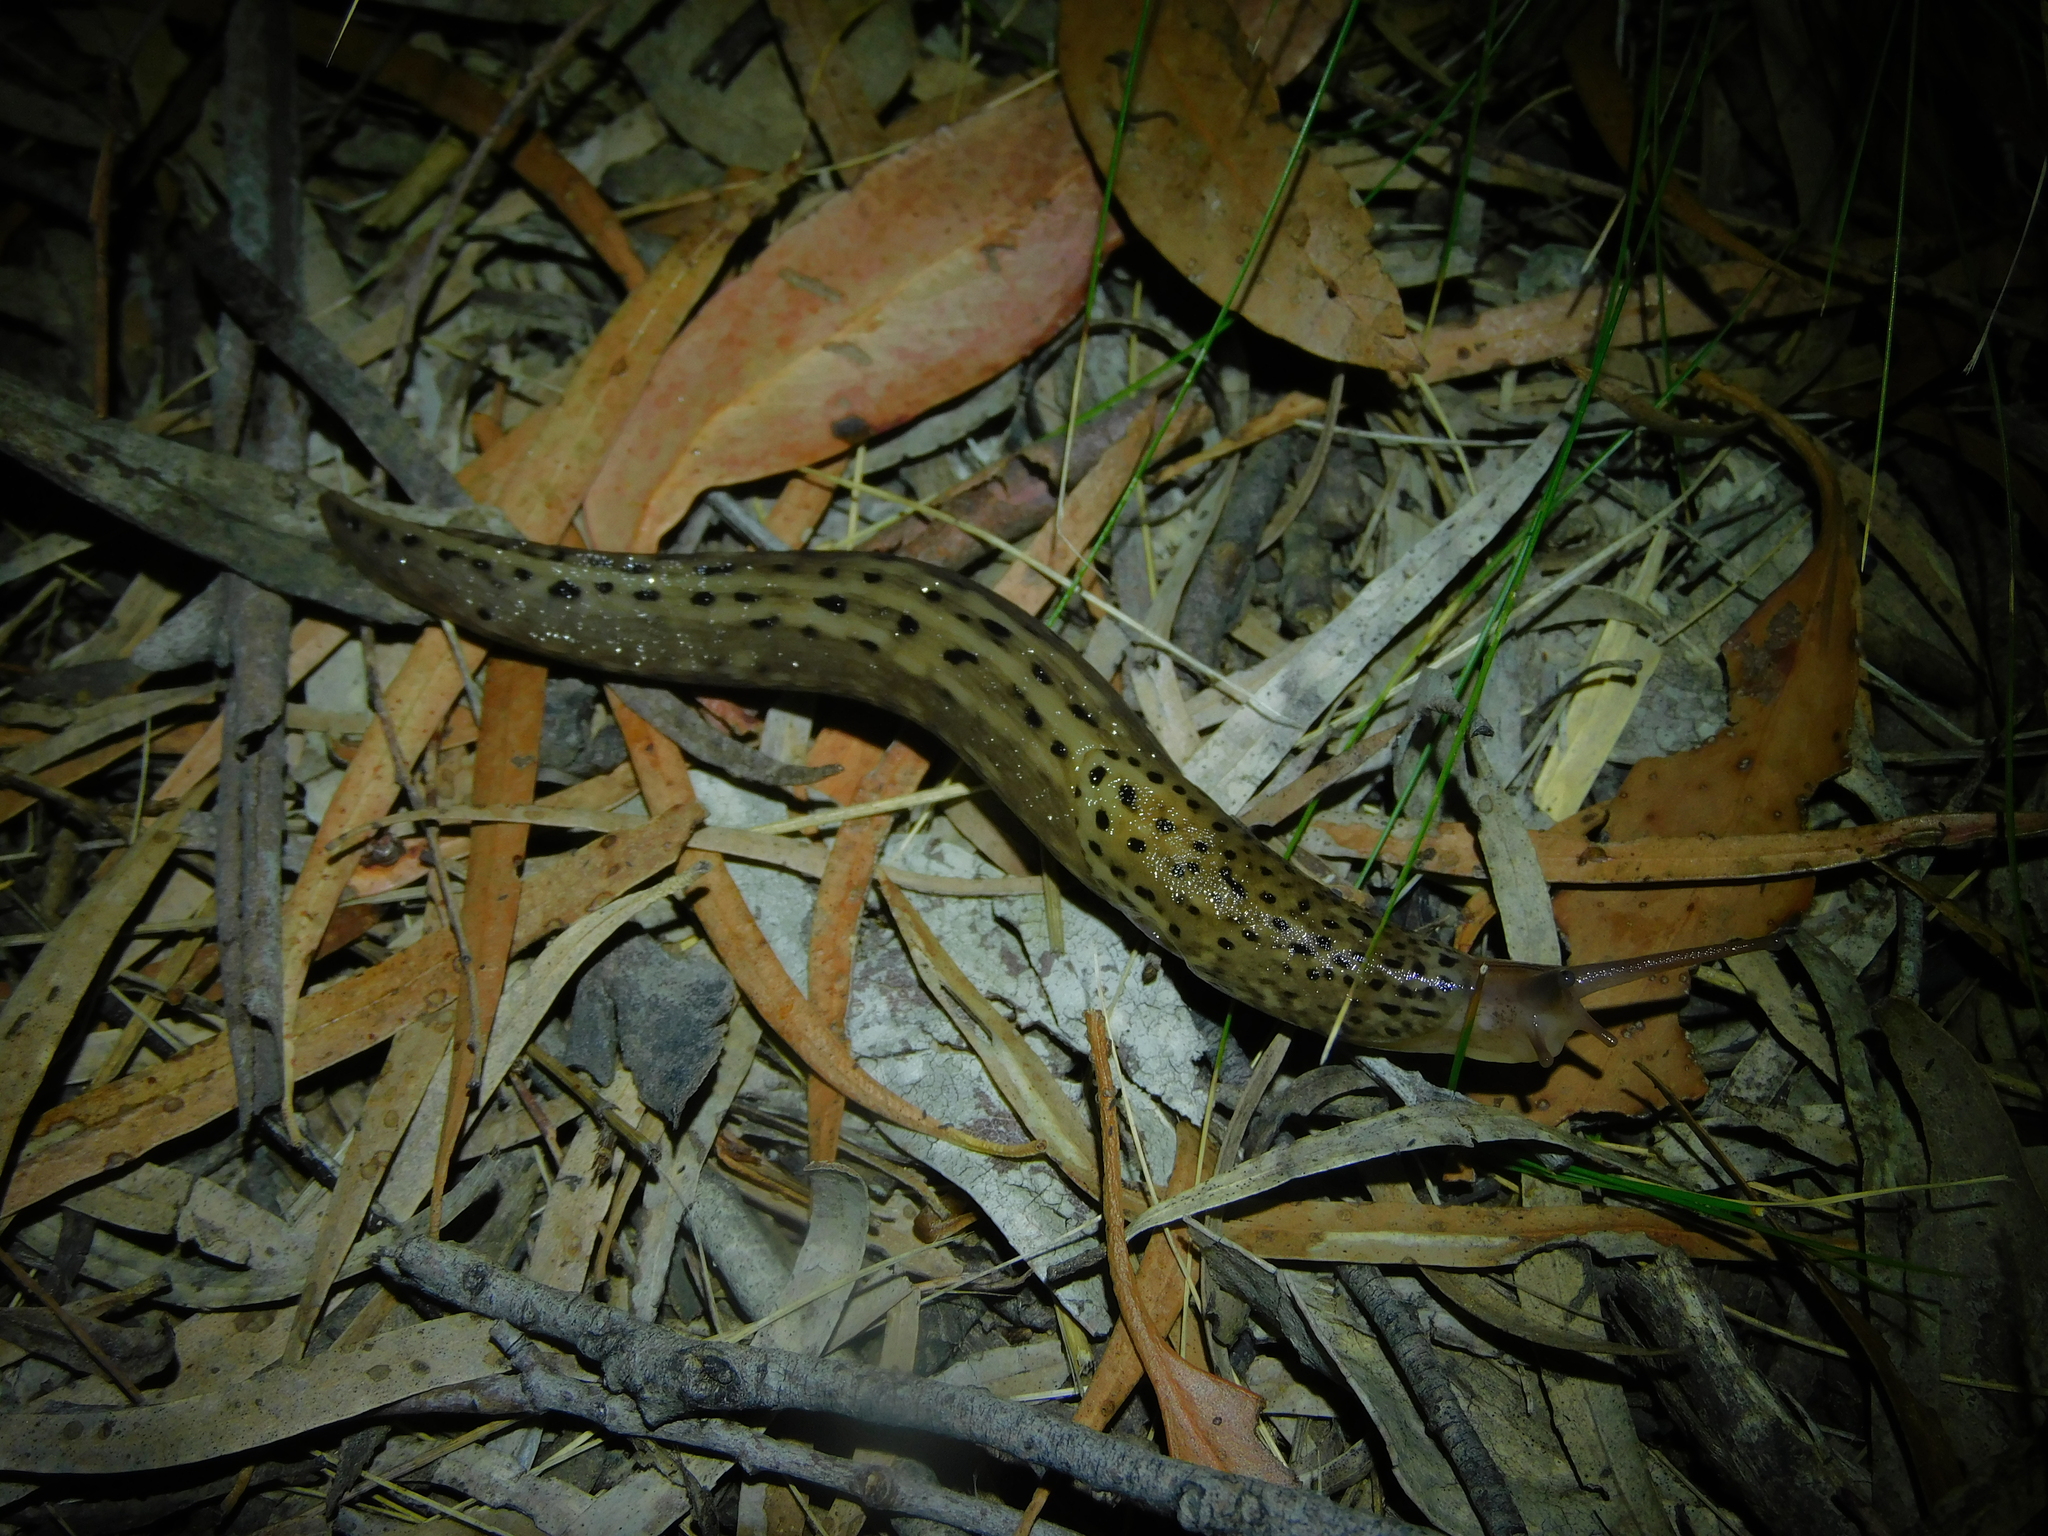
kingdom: Animalia
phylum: Mollusca
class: Gastropoda
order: Stylommatophora
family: Limacidae
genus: Limax
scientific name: Limax maximus
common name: Great grey slug
